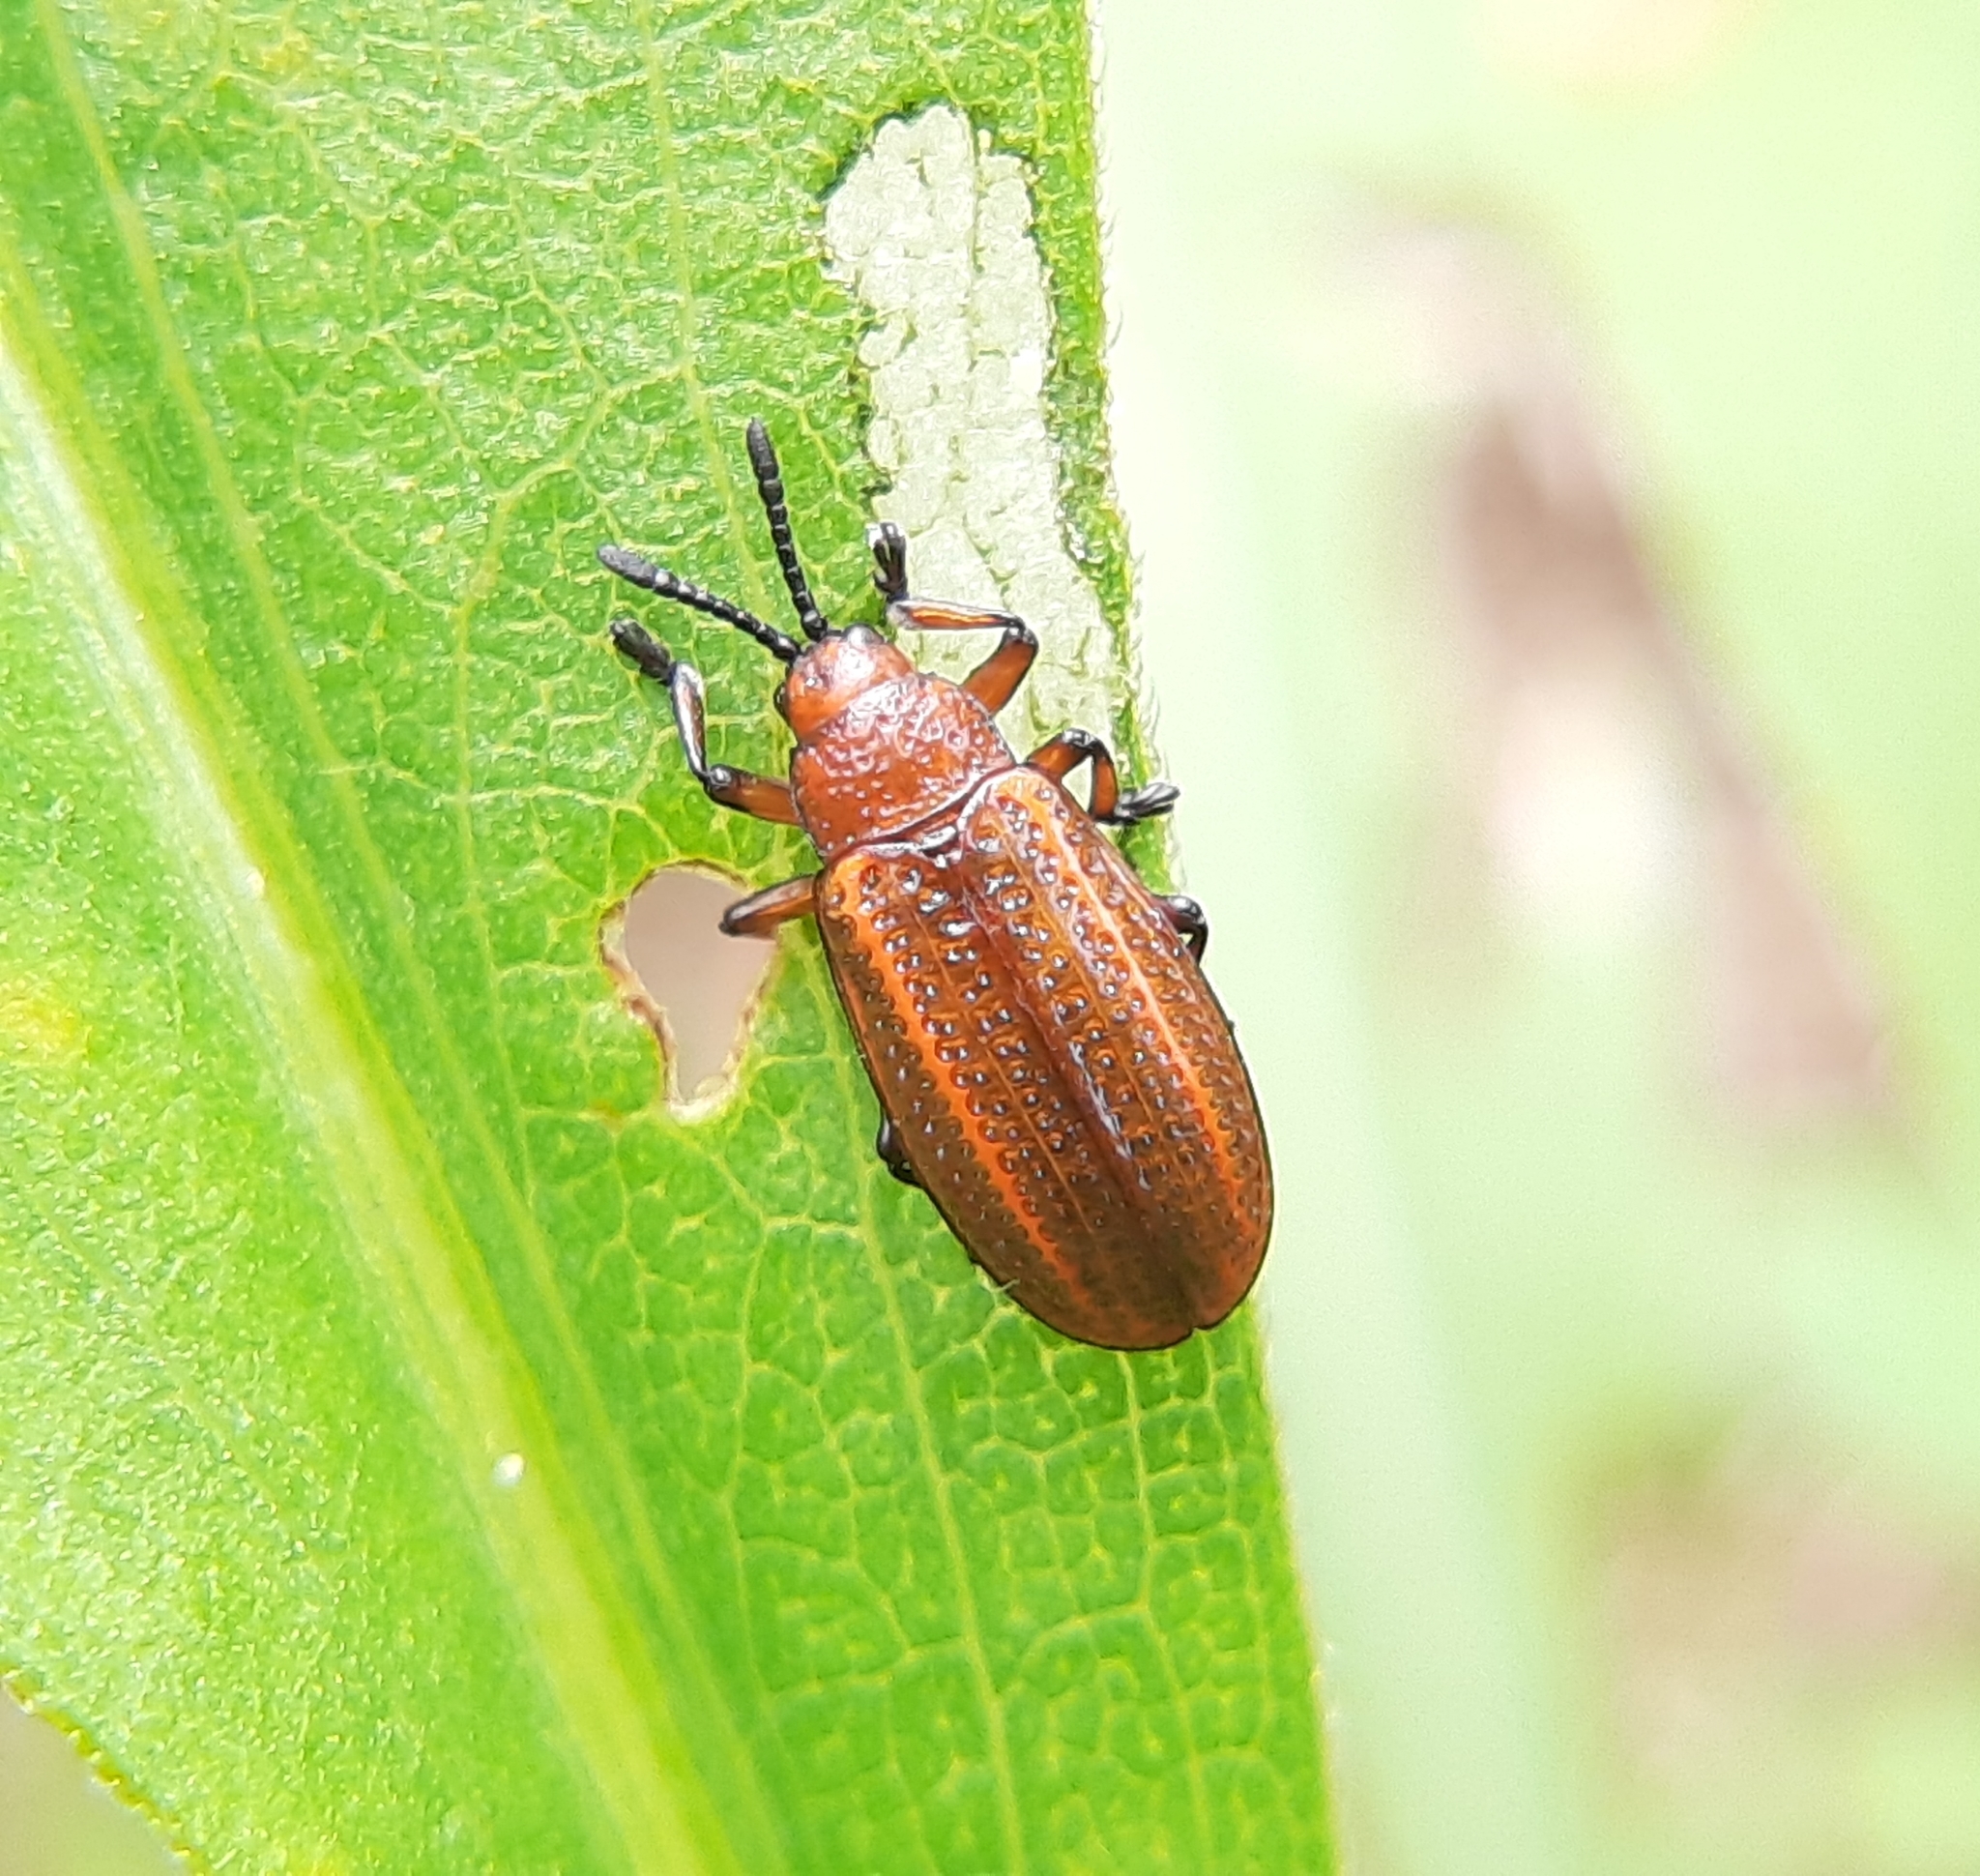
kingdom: Animalia
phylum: Arthropoda
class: Insecta
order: Coleoptera
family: Chrysomelidae
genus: Microrhopala
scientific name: Microrhopala vittata
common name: Goldenrod leaf miner beetle
